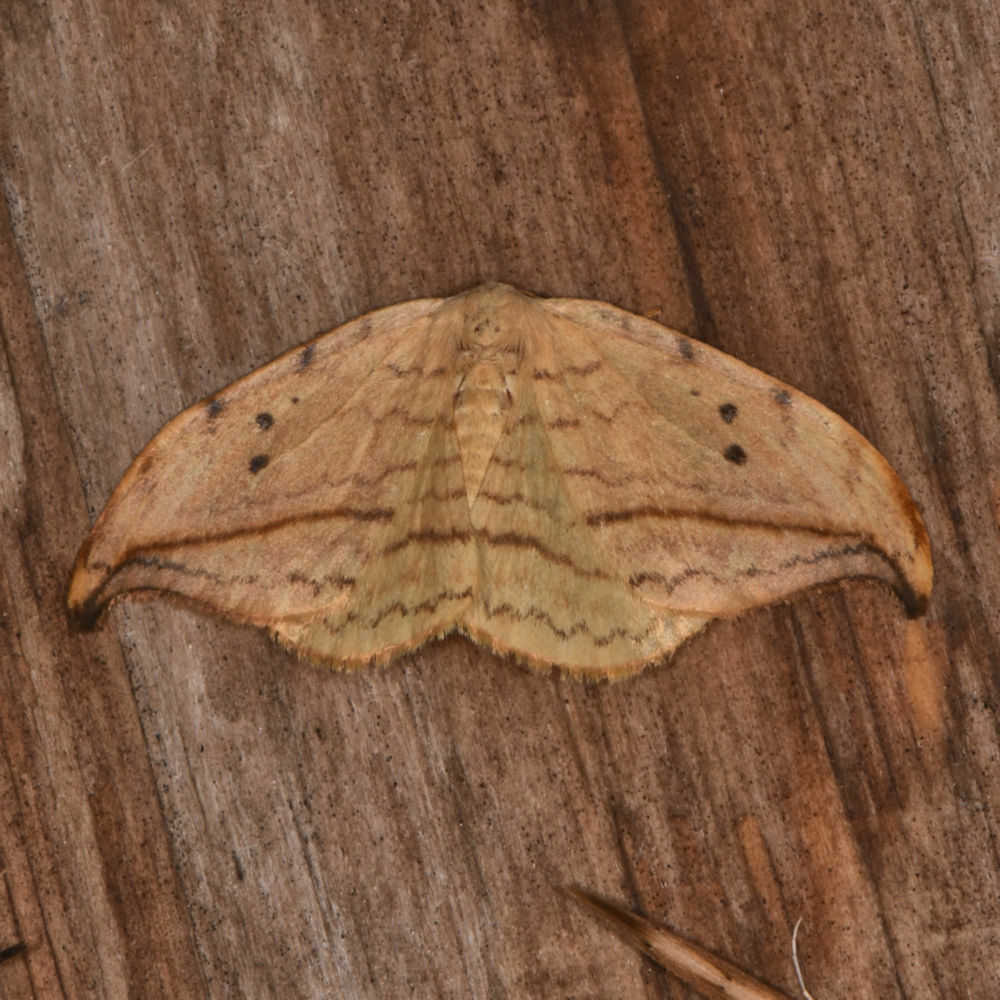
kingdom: Animalia
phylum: Arthropoda
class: Insecta
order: Lepidoptera
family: Drepanidae
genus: Drepana
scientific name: Drepana arcuata
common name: Arched hooktip moth
